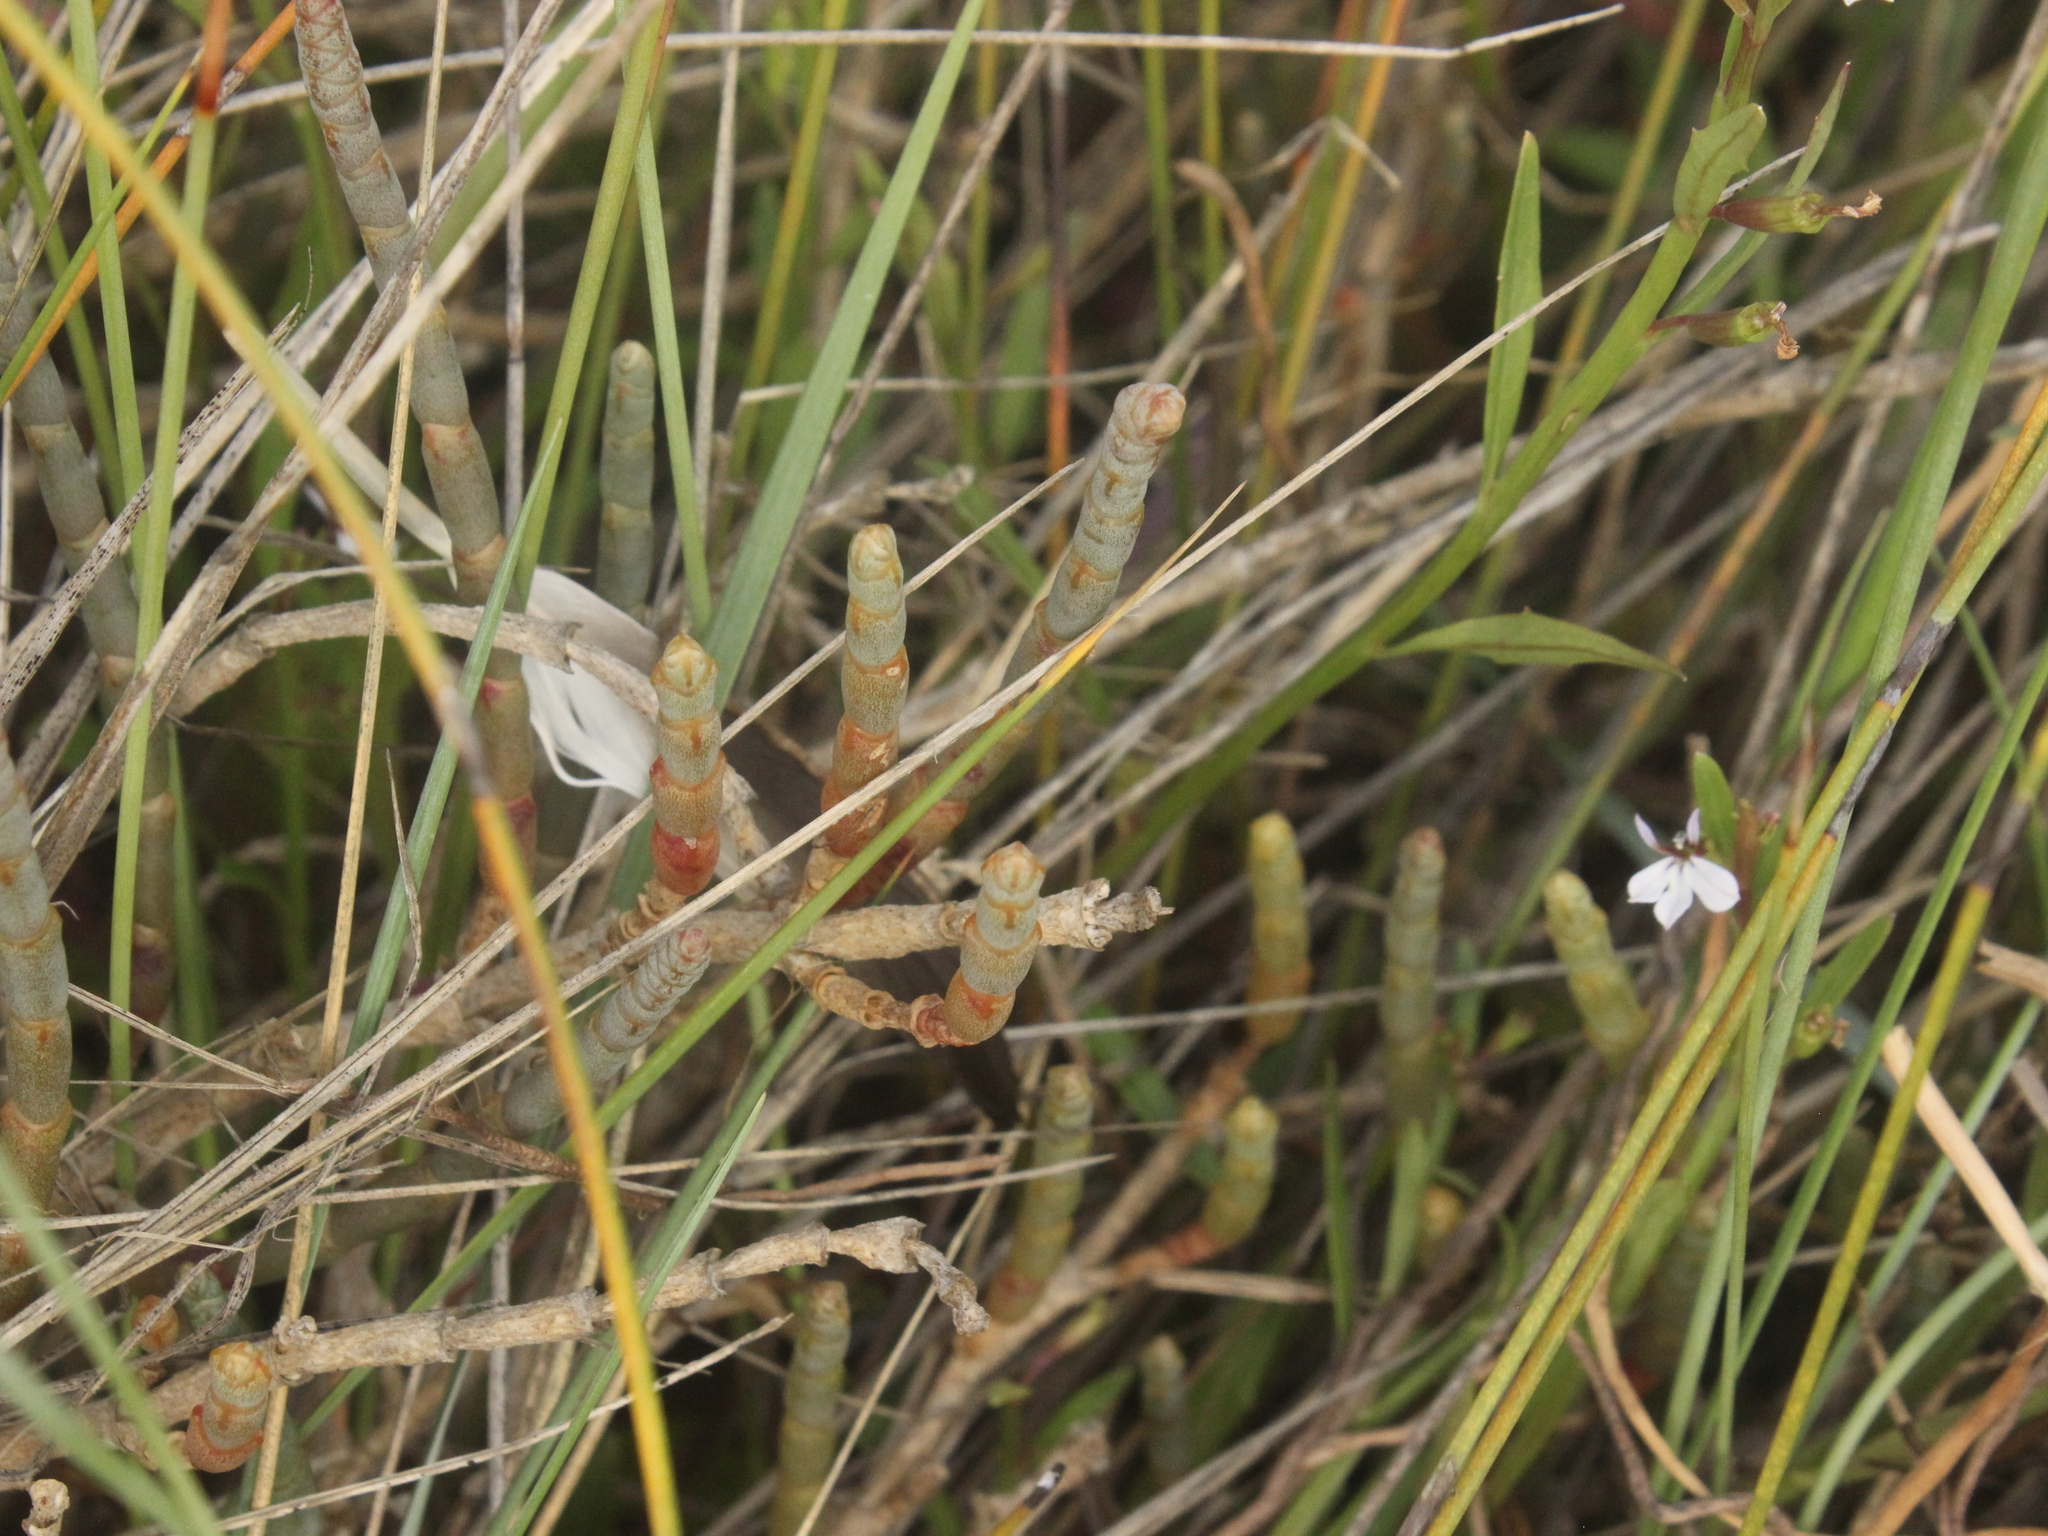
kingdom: Plantae
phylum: Tracheophyta
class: Magnoliopsida
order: Caryophyllales
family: Amaranthaceae
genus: Salicornia
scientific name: Salicornia quinqueflora
